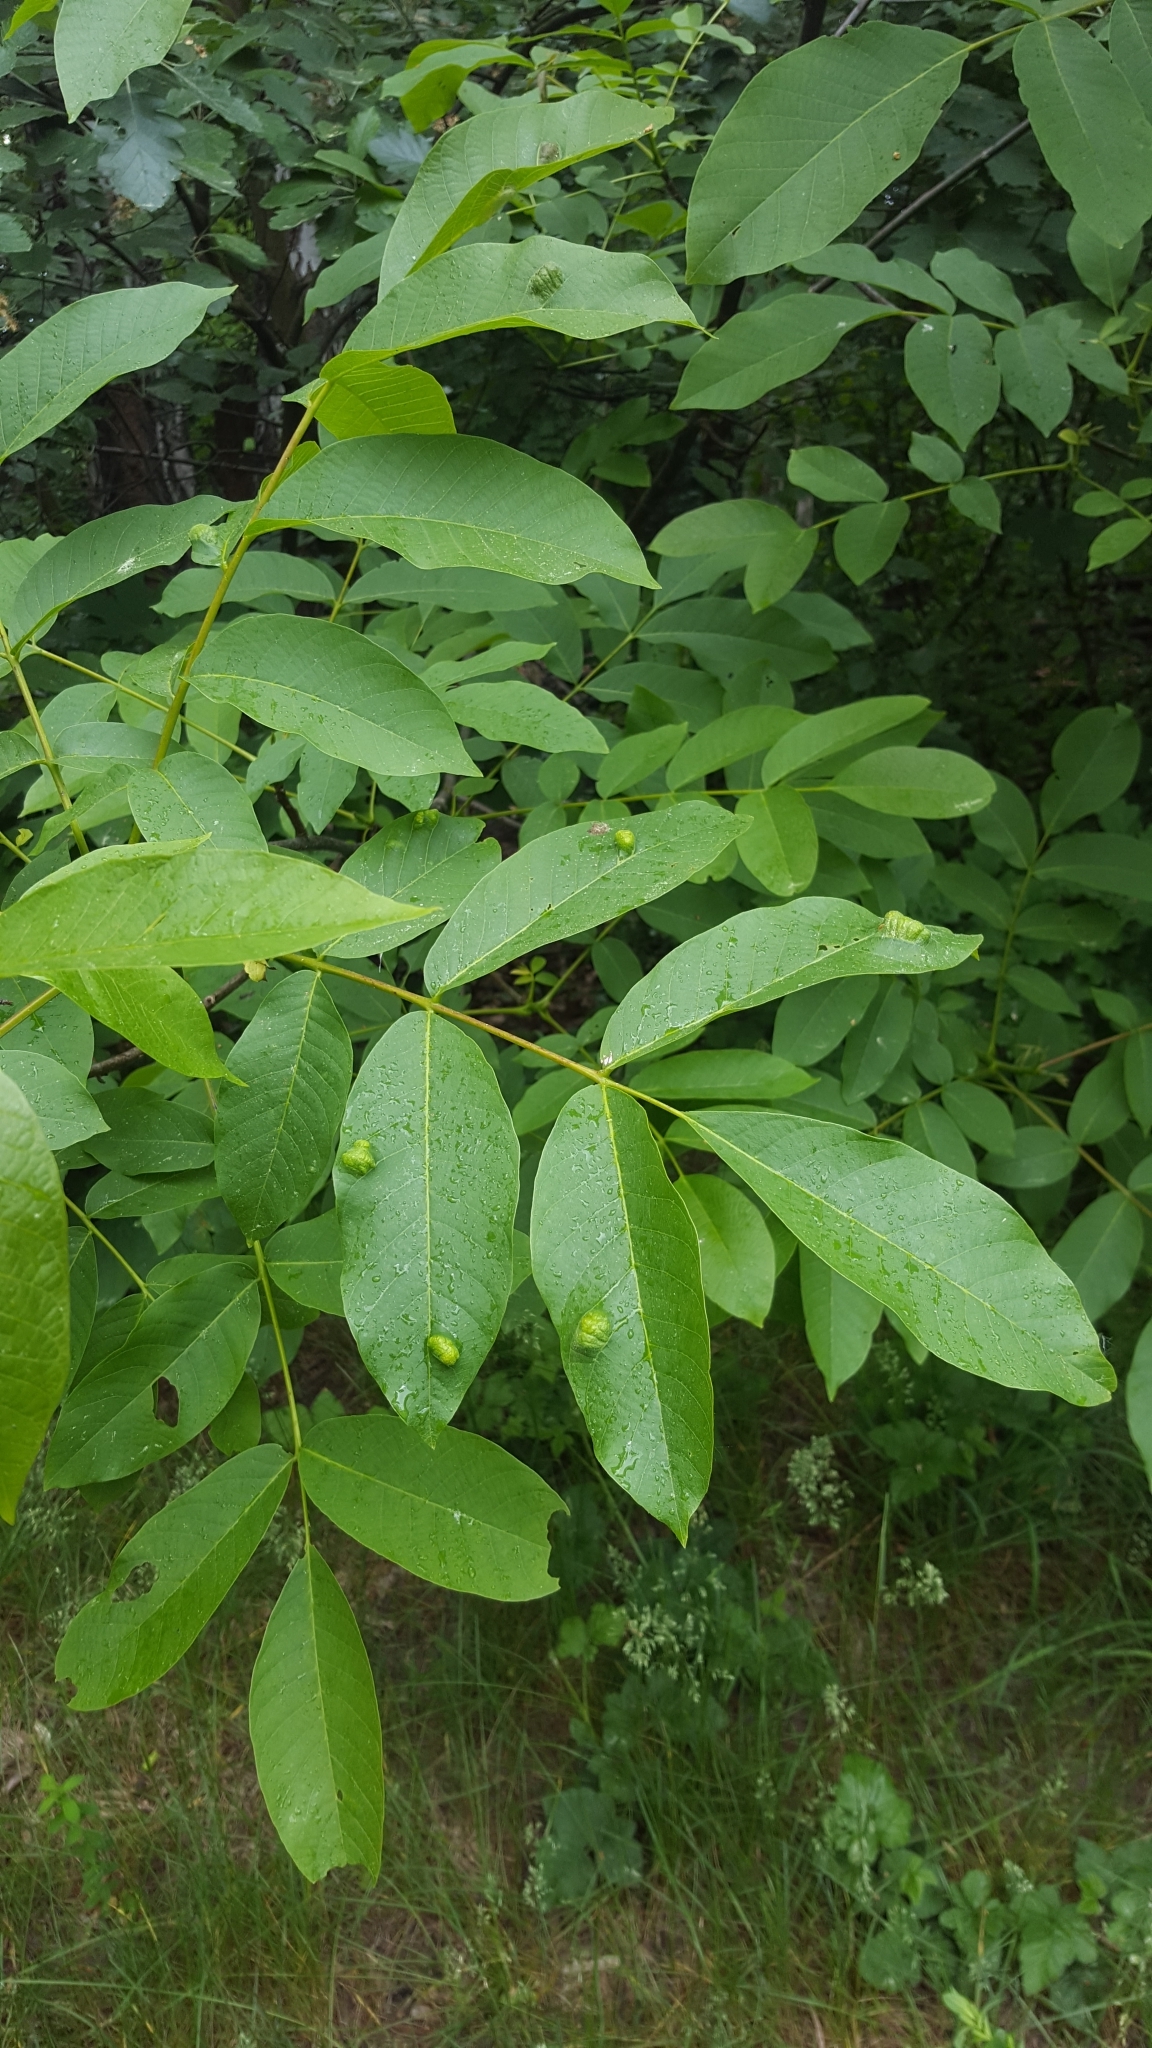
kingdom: Animalia
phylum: Arthropoda
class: Arachnida
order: Trombidiformes
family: Eriophyidae
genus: Aceria
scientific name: Aceria erinea
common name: Persian walnut erineum mite
